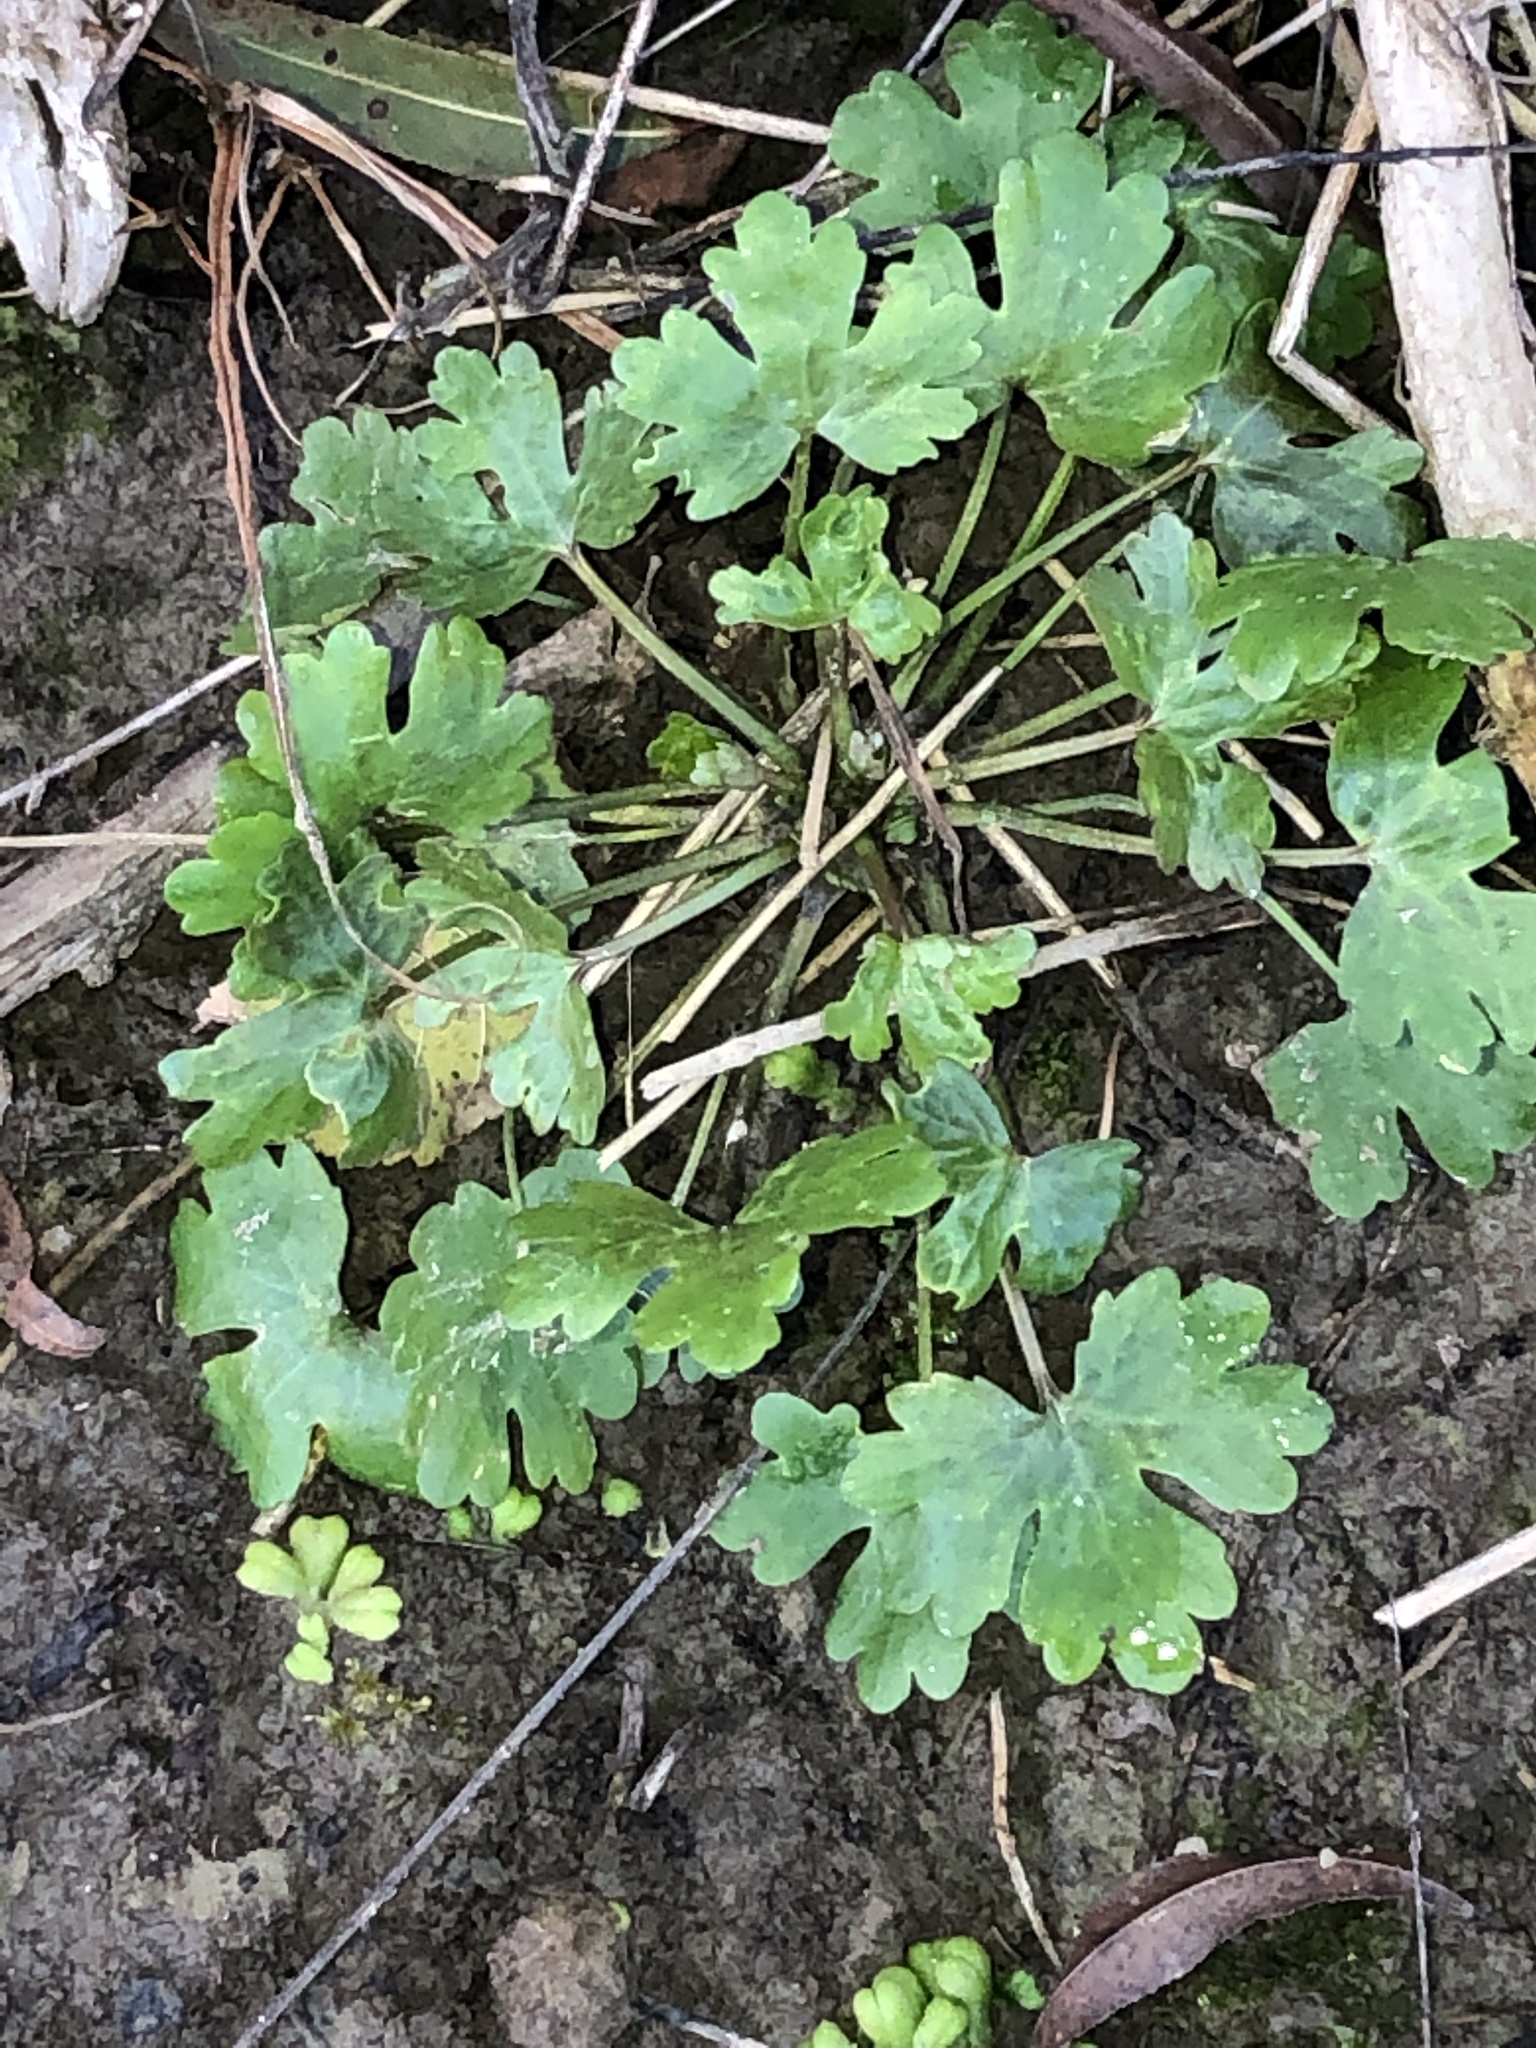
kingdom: Plantae
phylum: Tracheophyta
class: Magnoliopsida
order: Ranunculales
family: Ranunculaceae
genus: Ranunculus
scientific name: Ranunculus sceleratus
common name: Celery-leaved buttercup
